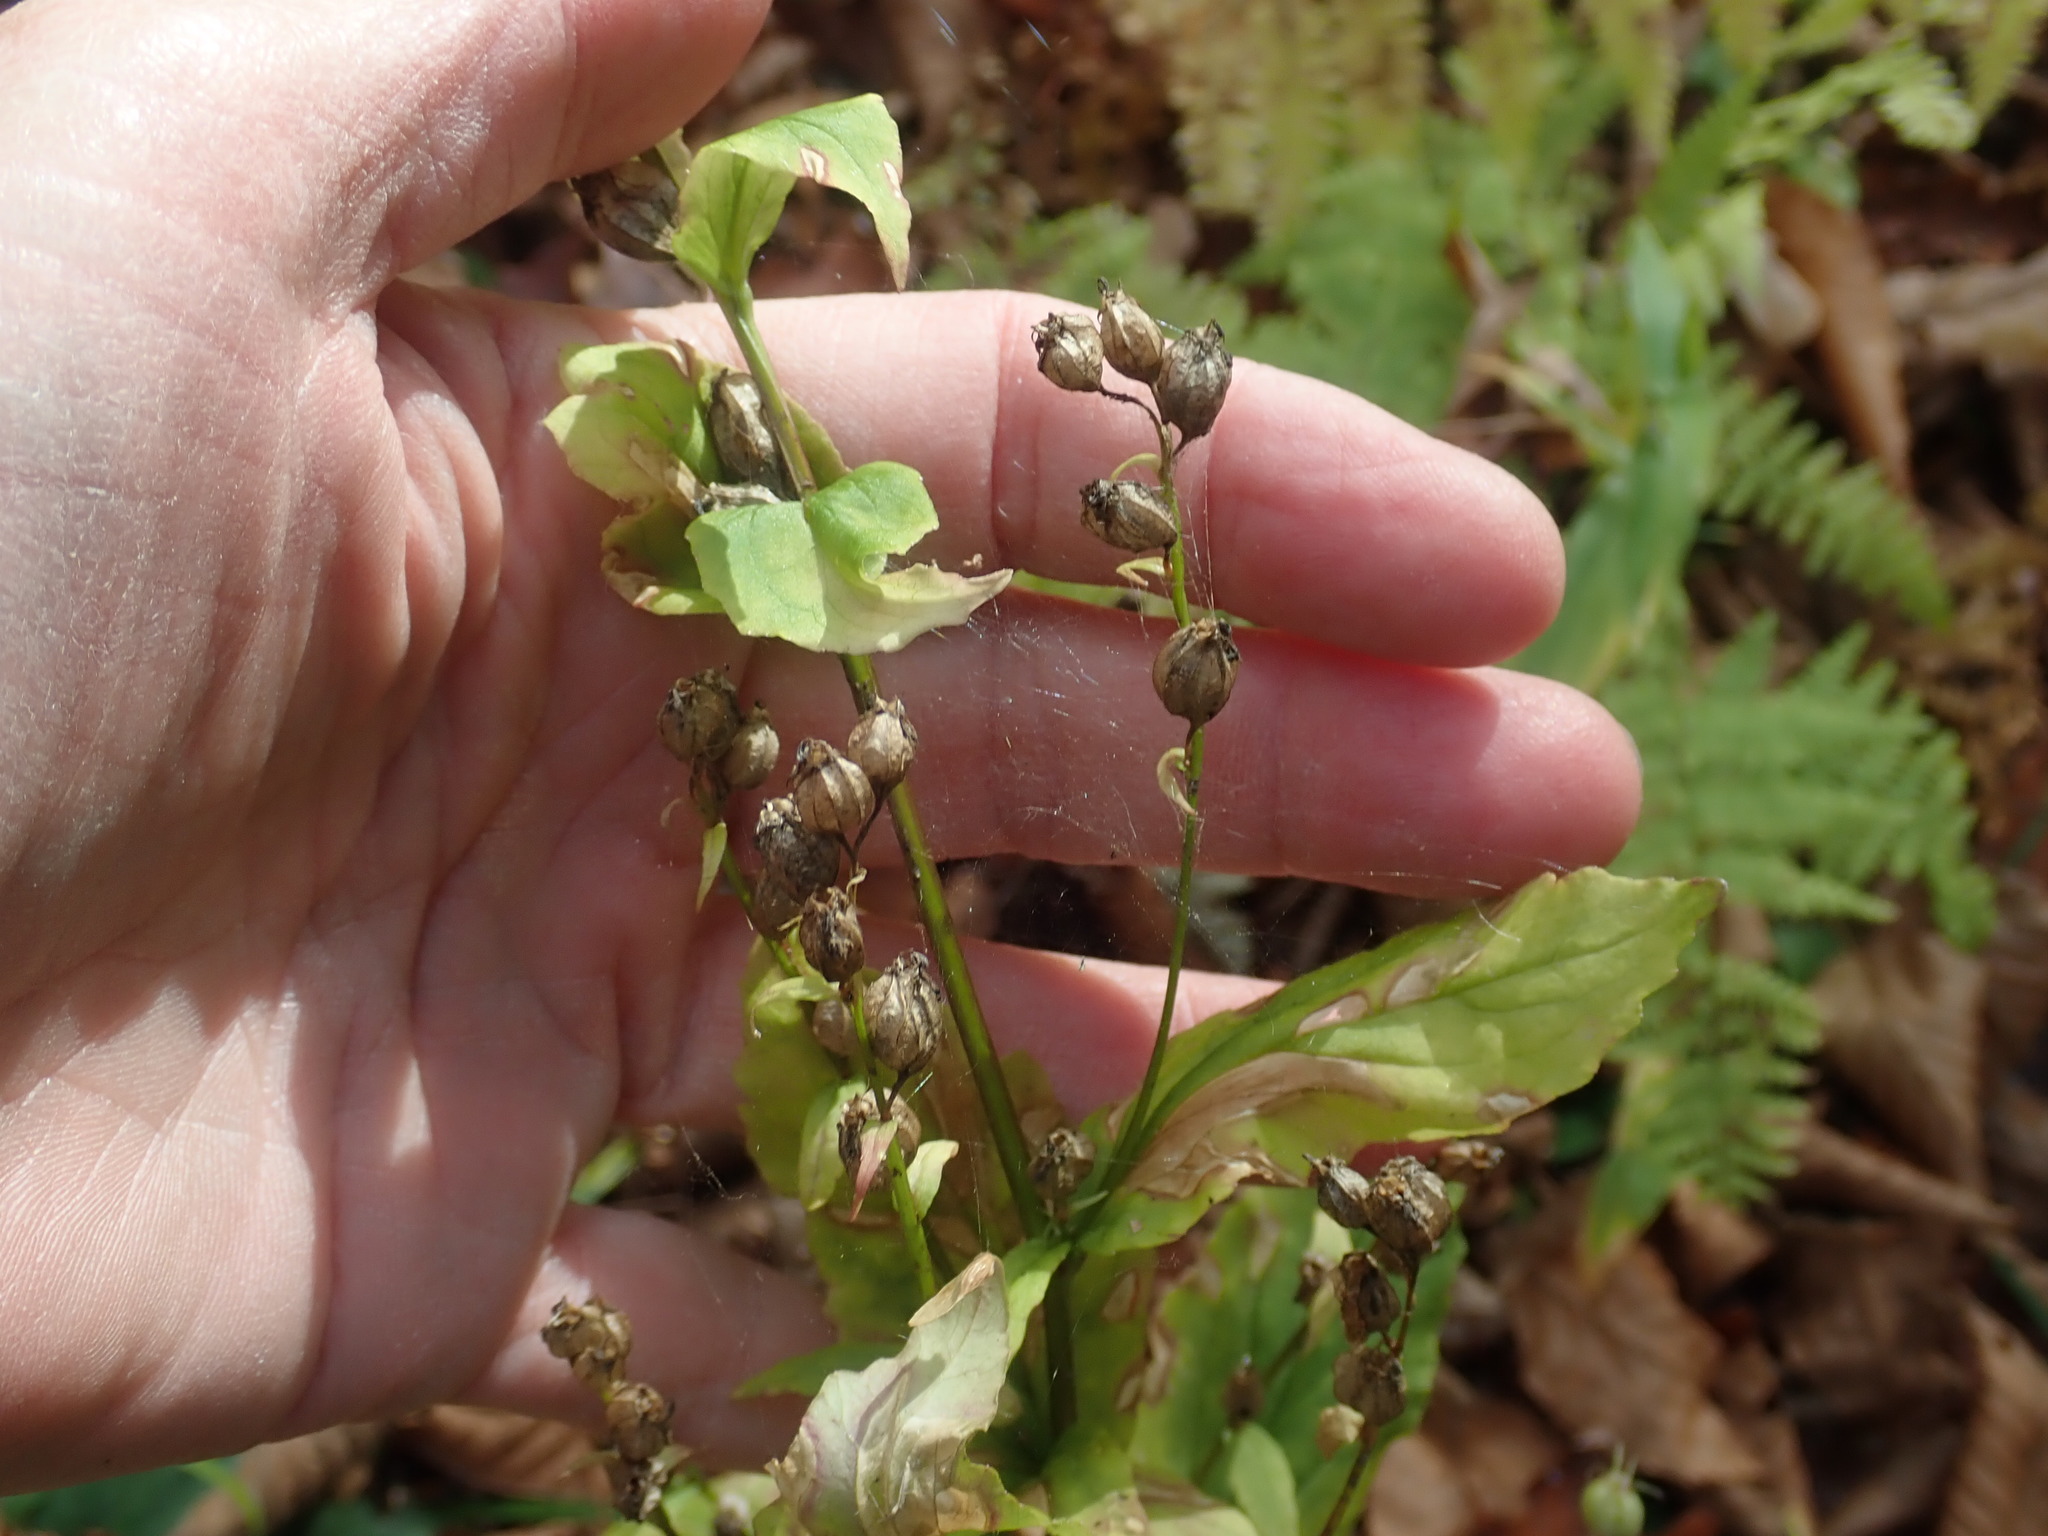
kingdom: Plantae
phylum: Tracheophyta
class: Magnoliopsida
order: Asterales
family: Campanulaceae
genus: Lobelia
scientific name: Lobelia inflata
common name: Indian tobacco
